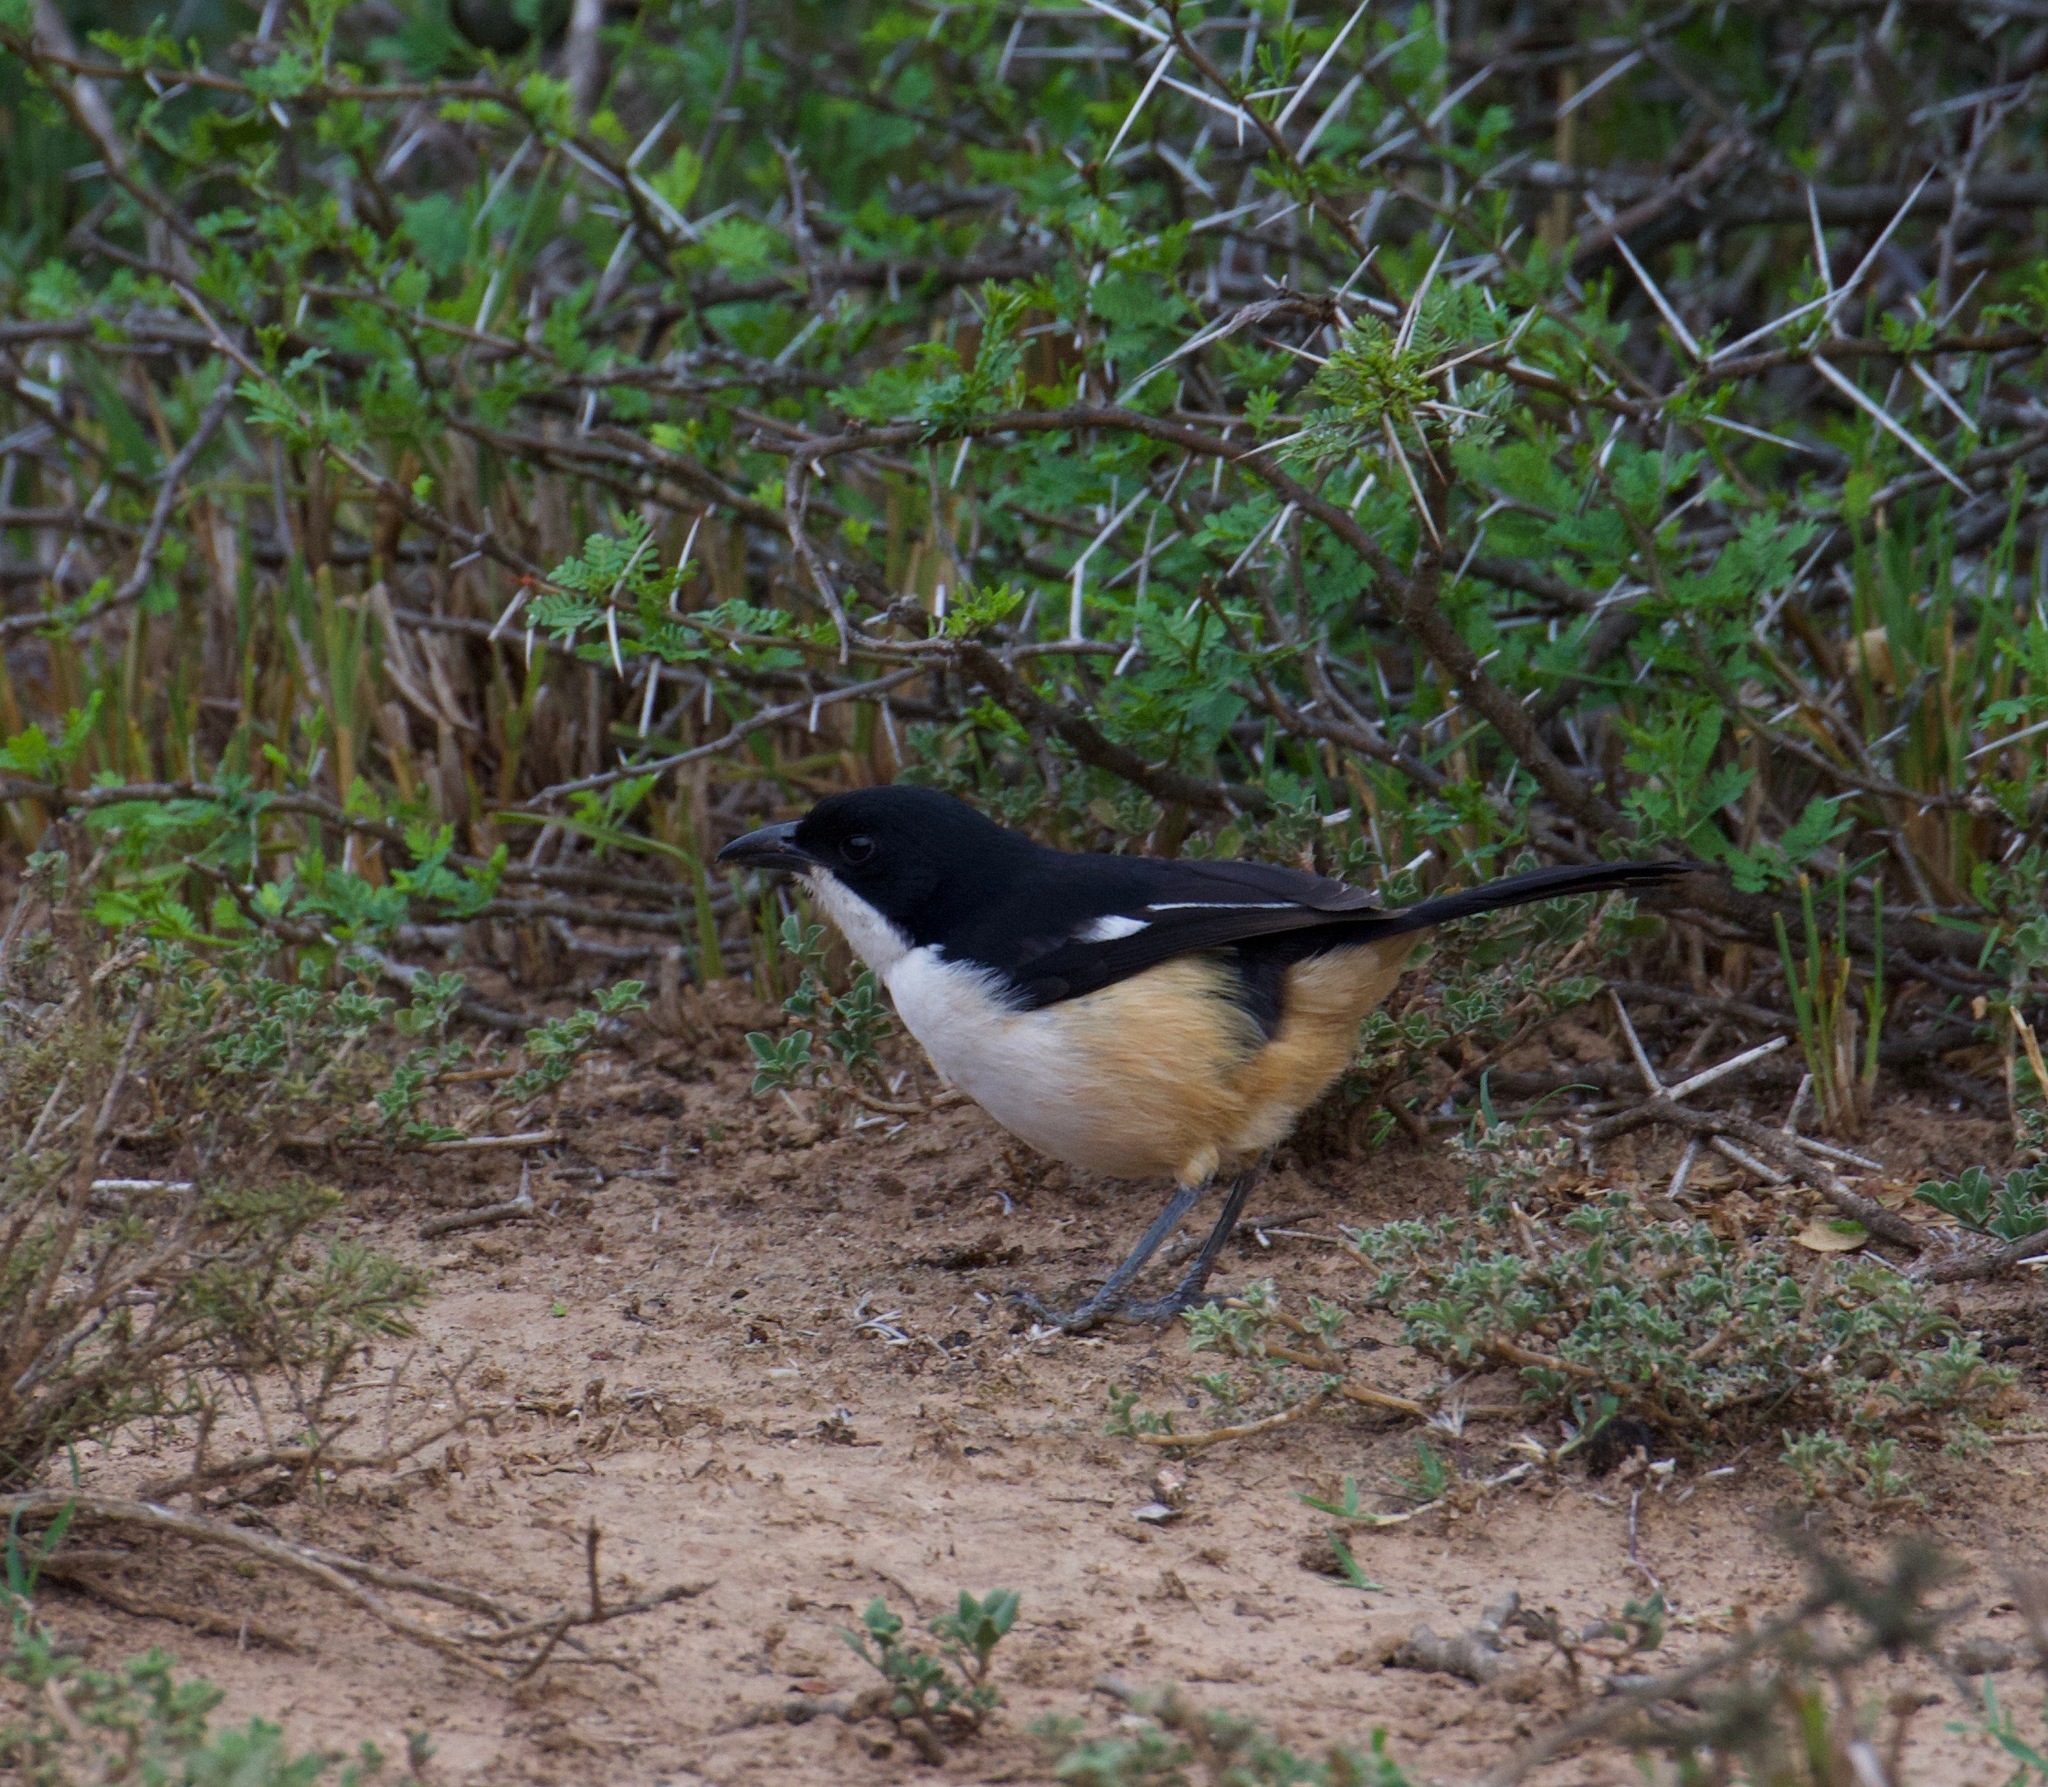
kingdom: Animalia
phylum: Chordata
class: Aves
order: Passeriformes
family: Malaconotidae
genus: Laniarius
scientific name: Laniarius ferrugineus
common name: Southern boubou
